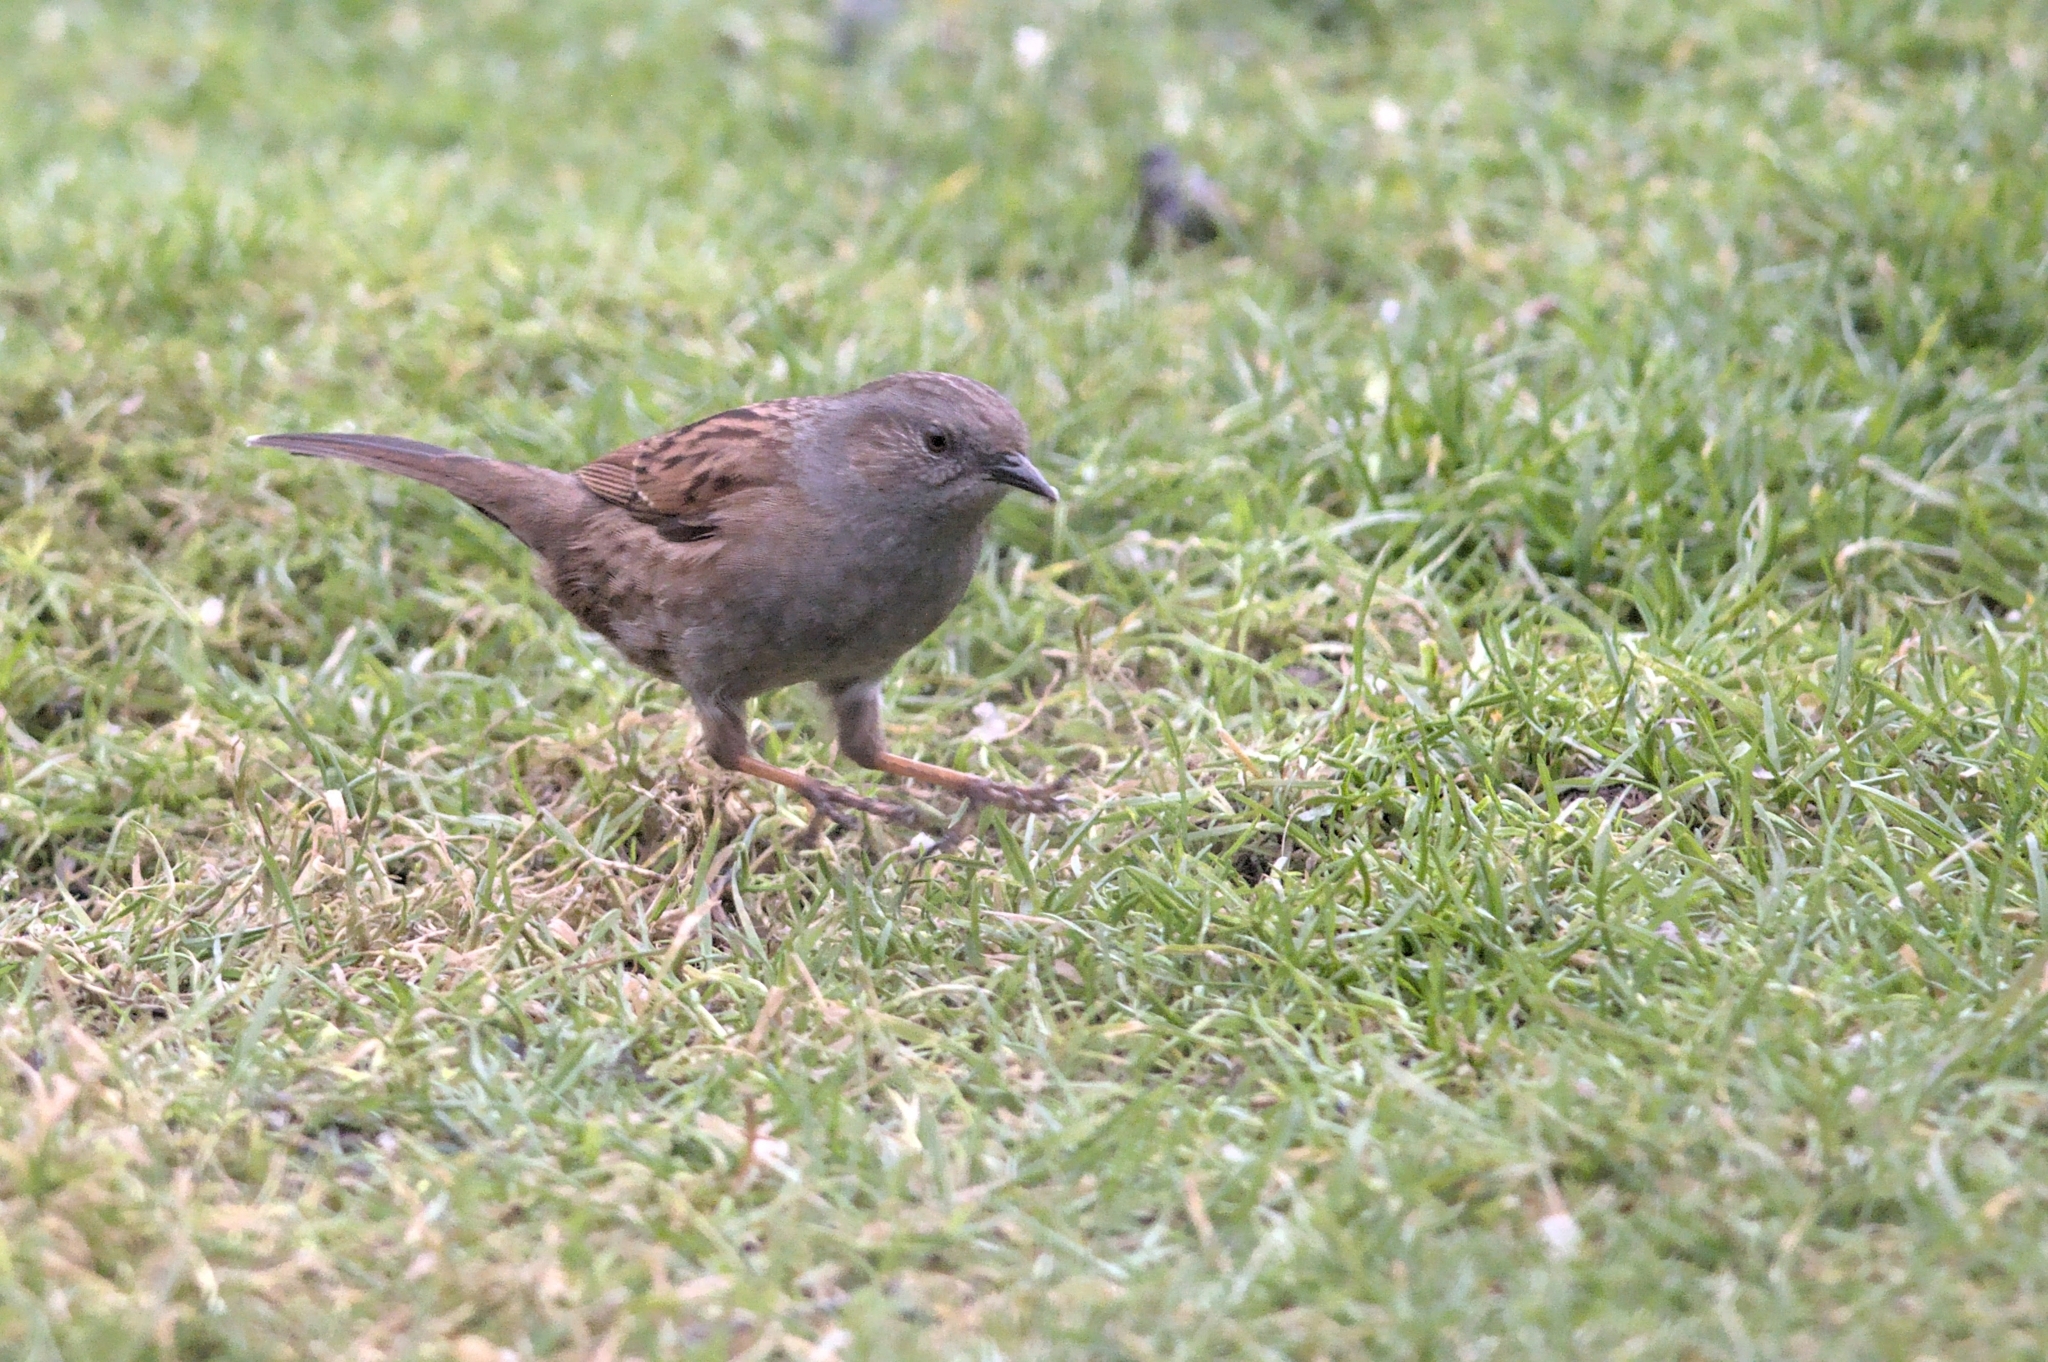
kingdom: Animalia
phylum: Chordata
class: Aves
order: Passeriformes
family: Prunellidae
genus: Prunella
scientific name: Prunella modularis
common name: Dunnock
